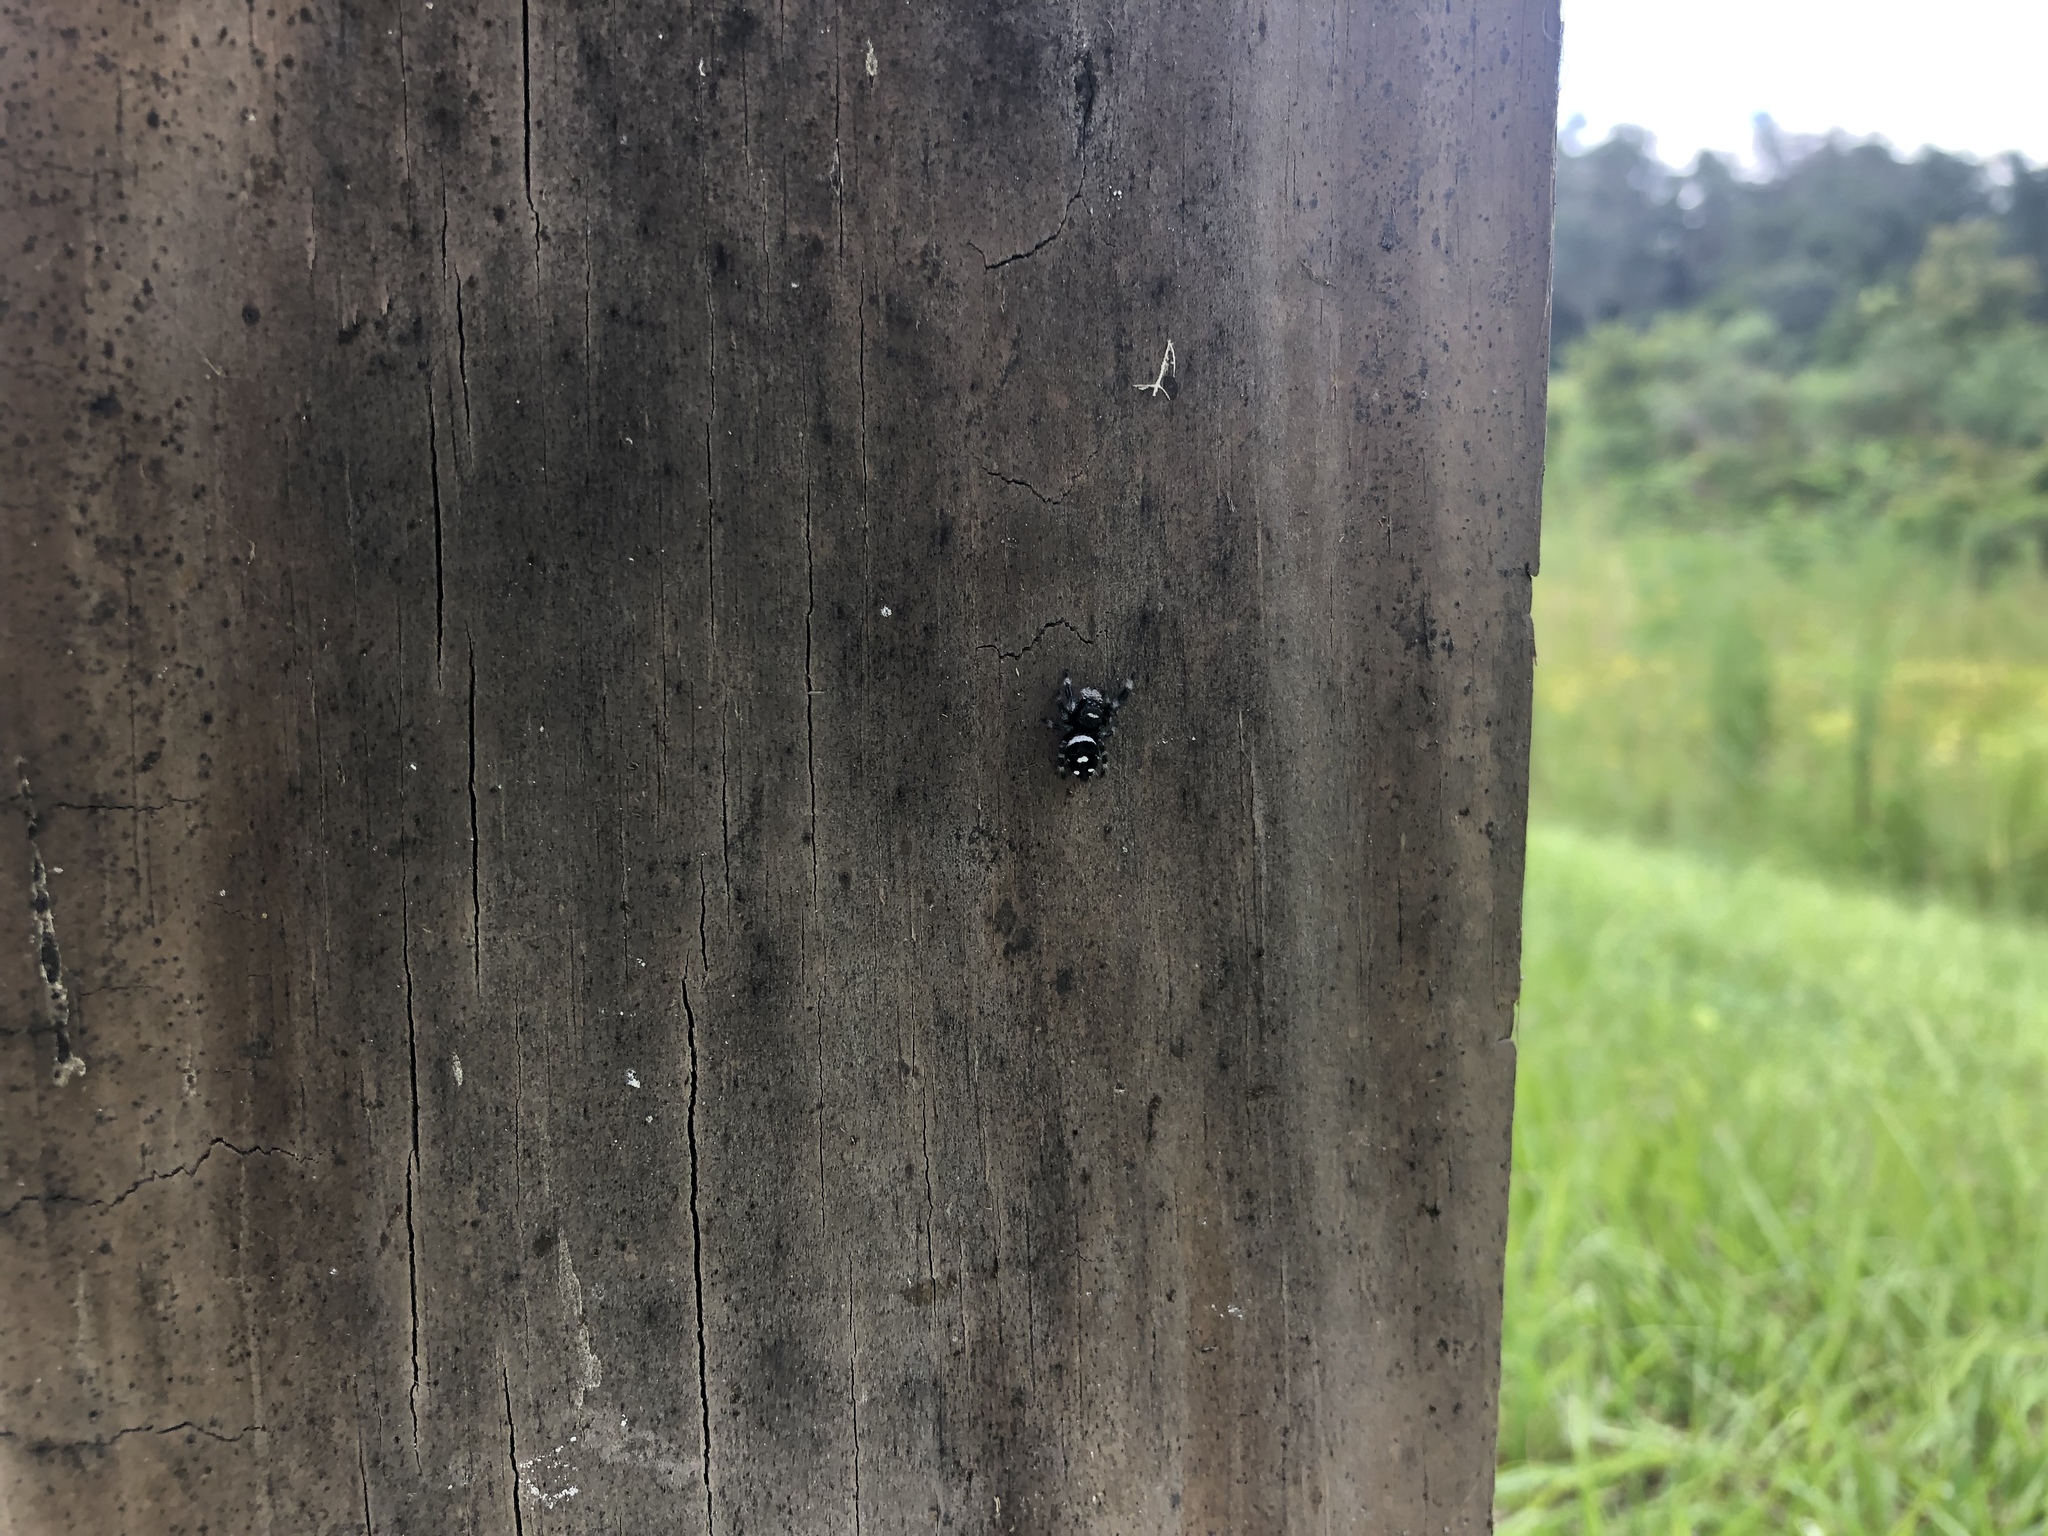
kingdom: Animalia
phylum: Arthropoda
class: Arachnida
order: Araneae
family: Salticidae
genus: Phidippus
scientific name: Phidippus regius
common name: Regal jumper
